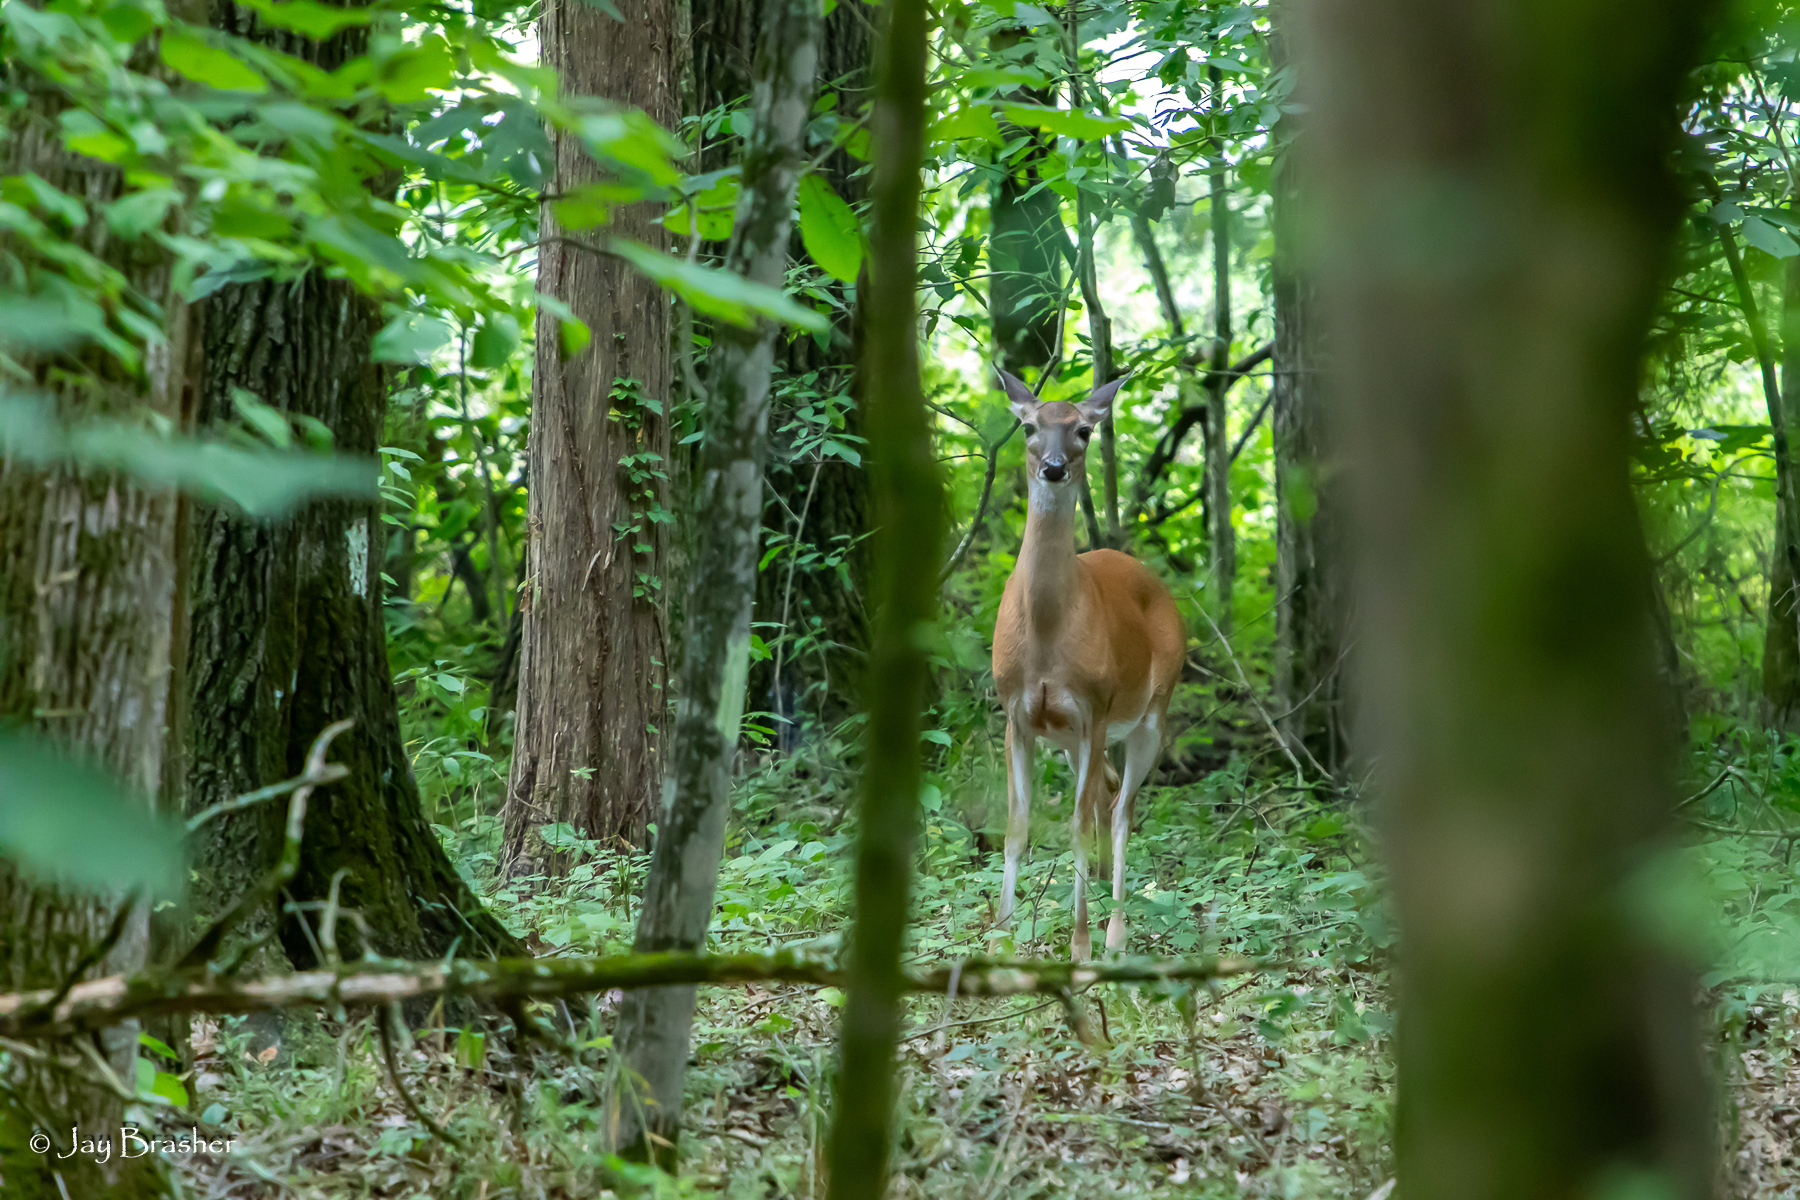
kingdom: Animalia
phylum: Chordata
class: Mammalia
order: Artiodactyla
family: Cervidae
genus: Odocoileus
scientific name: Odocoileus virginianus
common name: White-tailed deer
